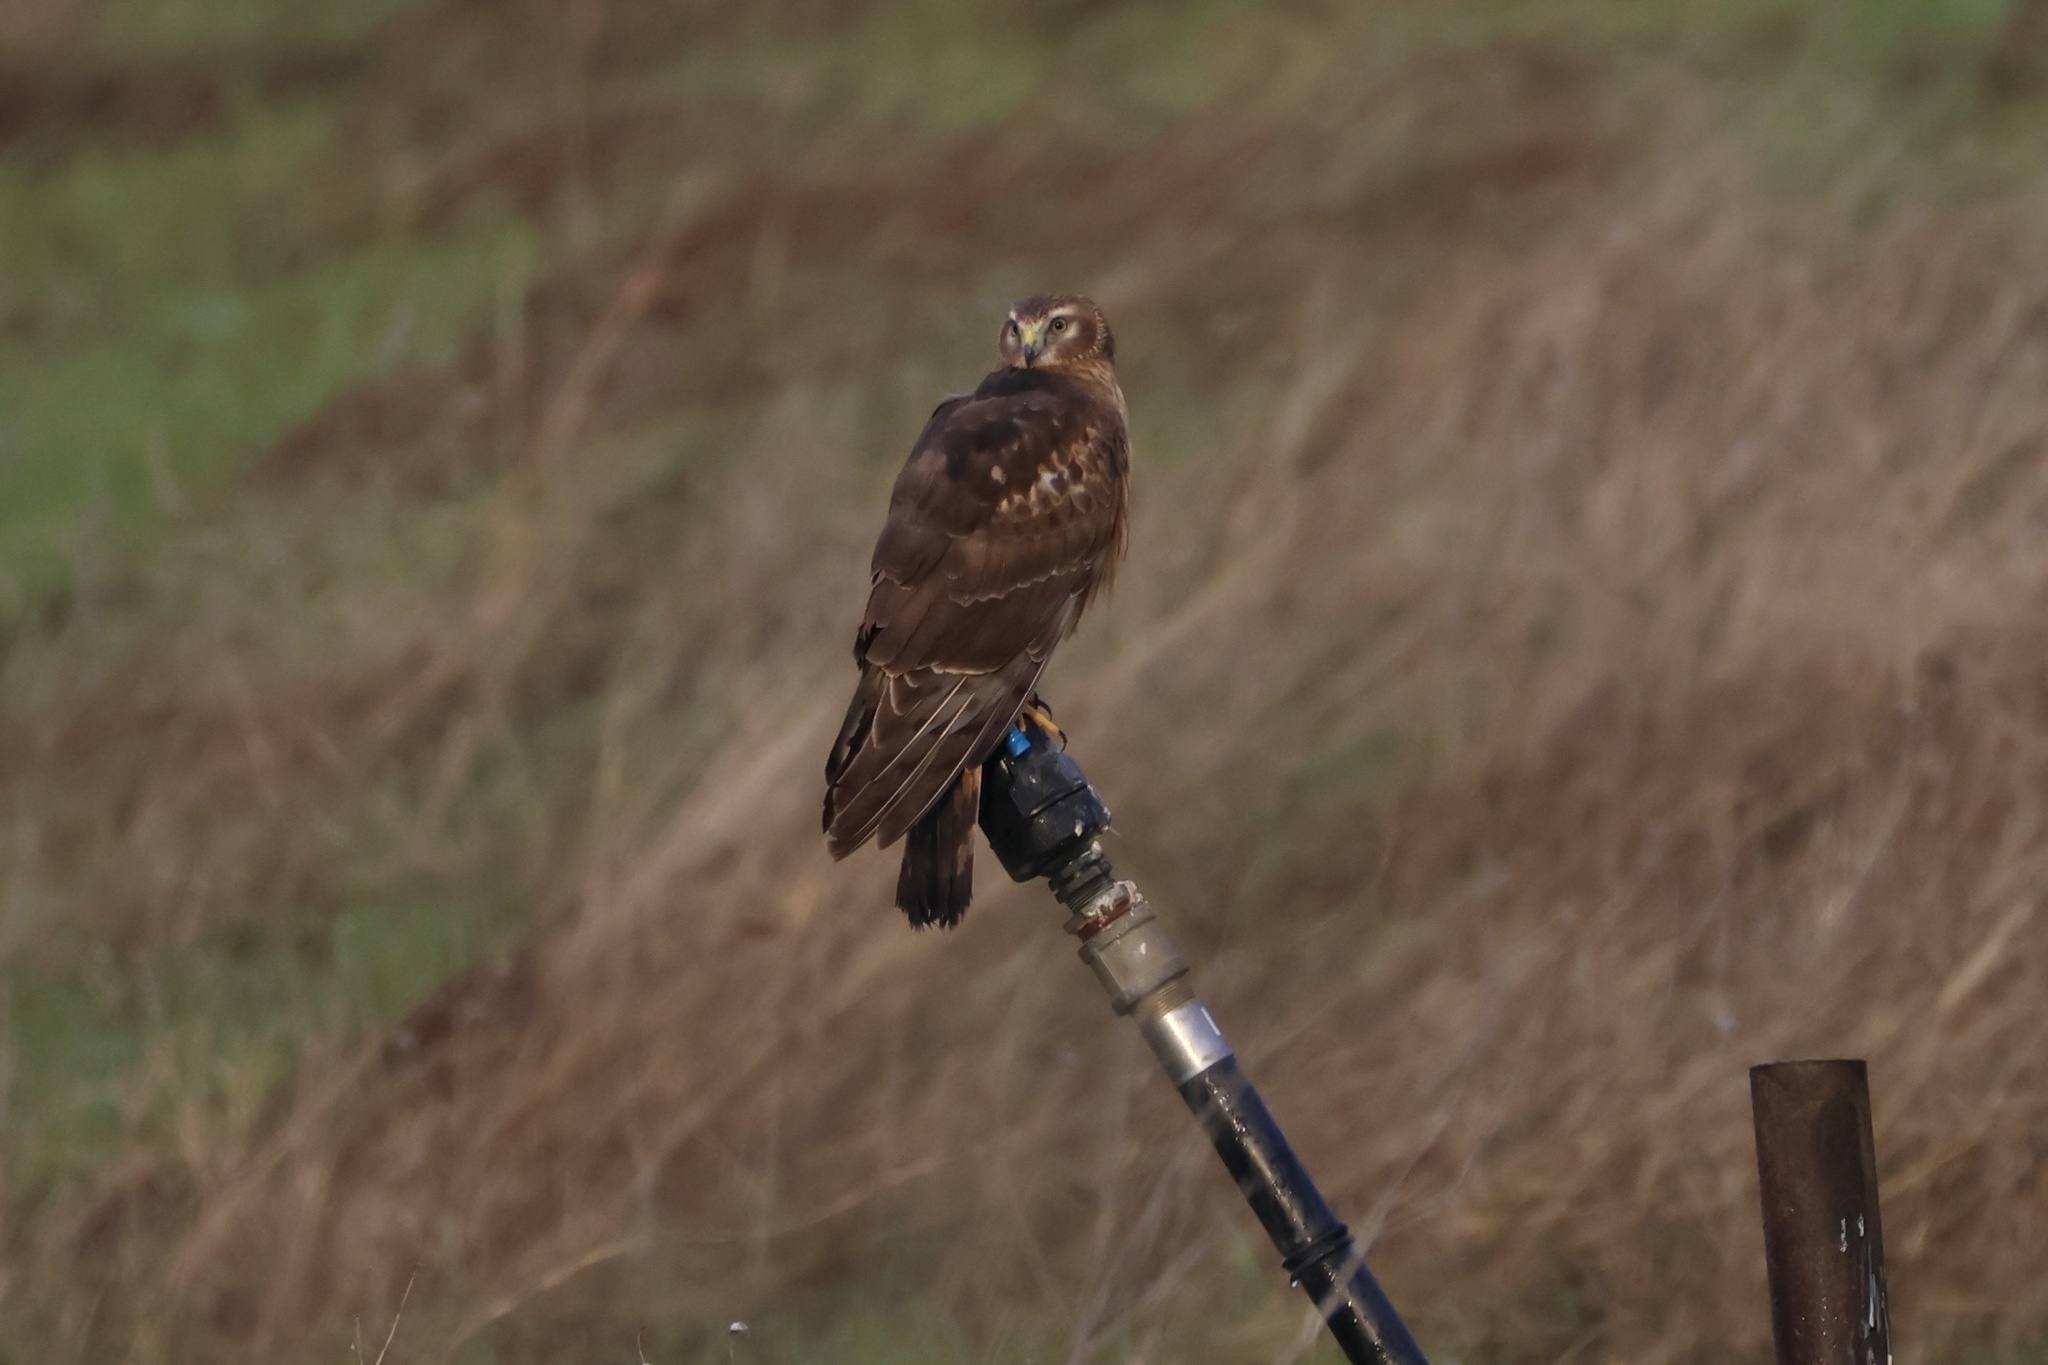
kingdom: Animalia
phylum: Chordata
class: Aves
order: Accipitriformes
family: Accipitridae
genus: Circus
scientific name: Circus cyaneus
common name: Hen harrier
